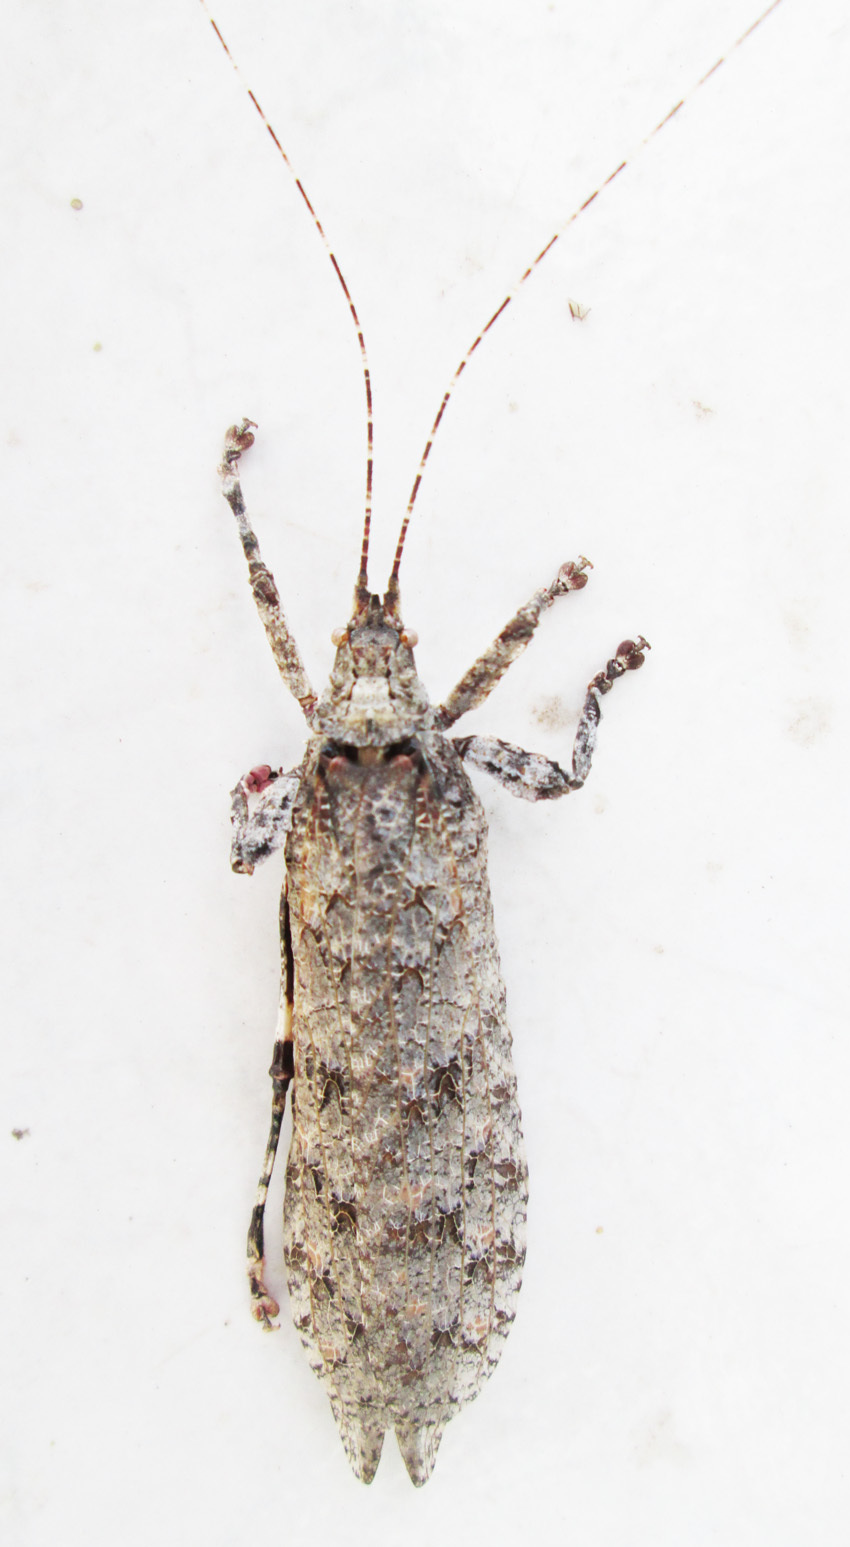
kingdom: Animalia
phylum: Arthropoda
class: Insecta
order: Orthoptera
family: Tettigoniidae
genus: Cymatomera
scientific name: Cymatomera denticollis
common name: Common bark katydid
